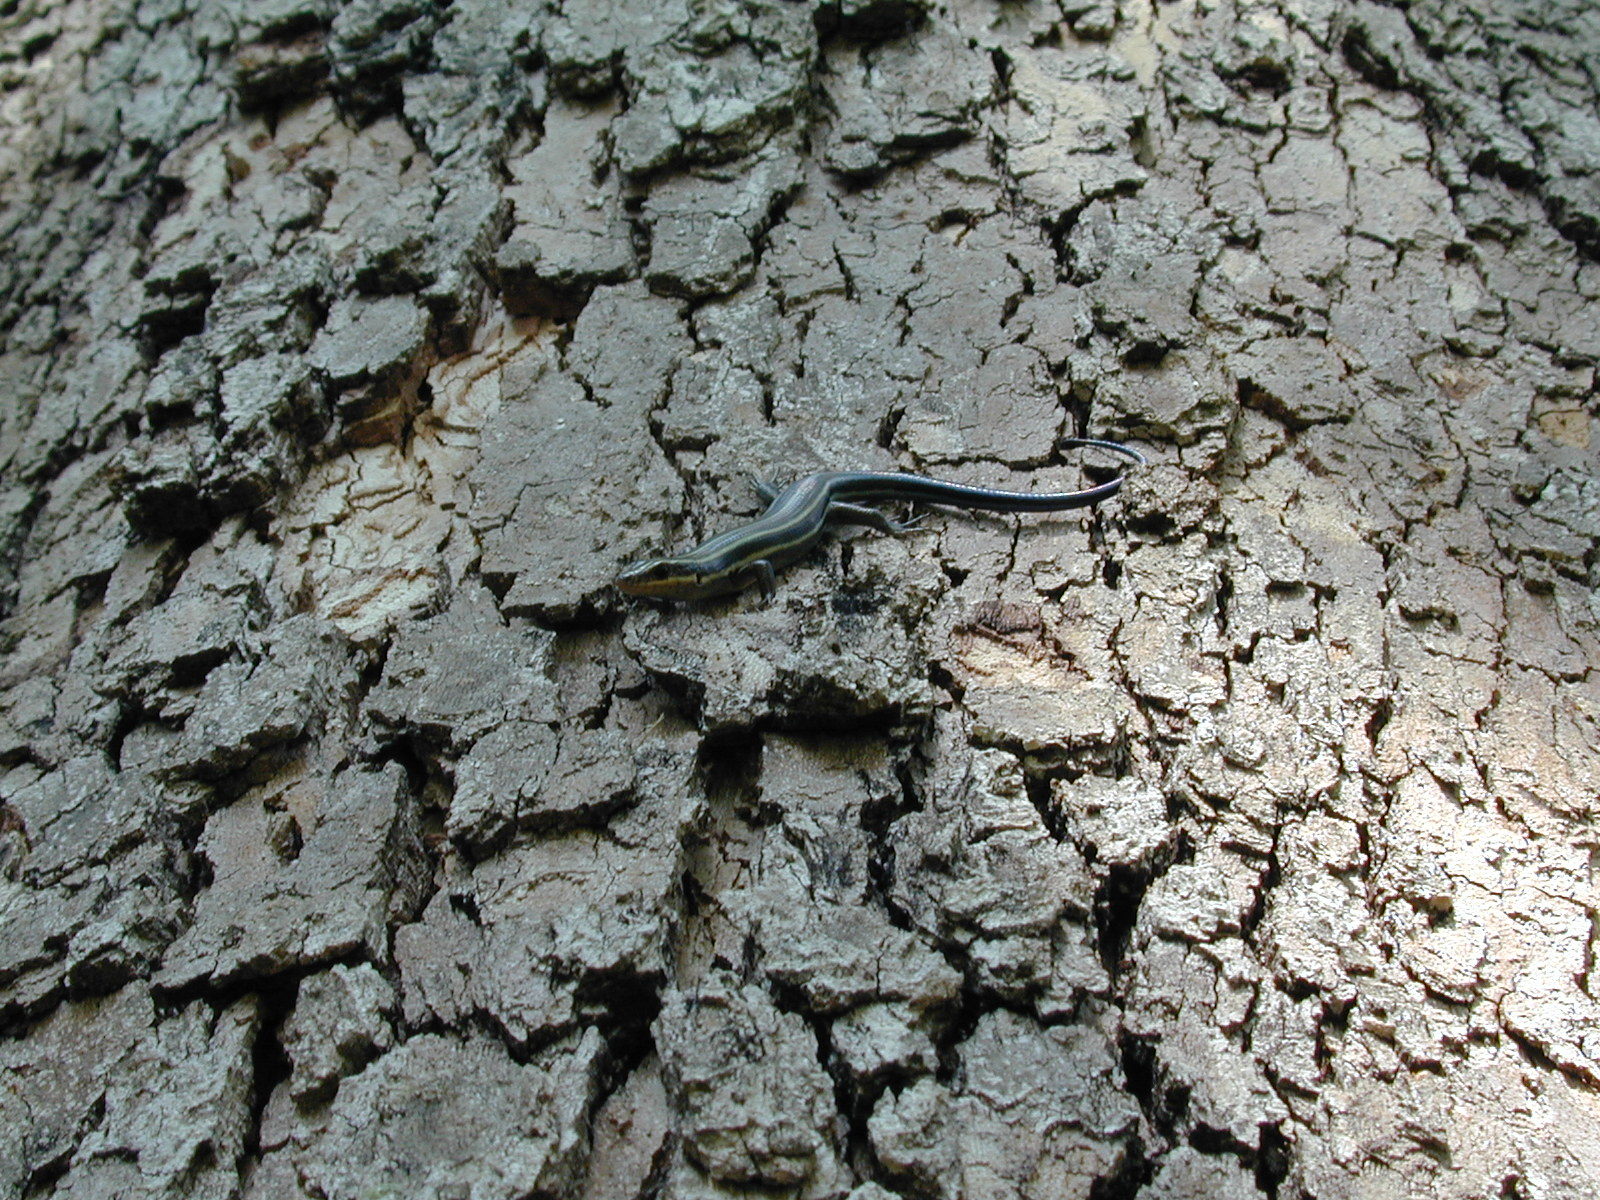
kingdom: Animalia
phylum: Chordata
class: Squamata
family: Scincidae
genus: Plestiodon
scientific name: Plestiodon fasciatus
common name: Five-lined skink
